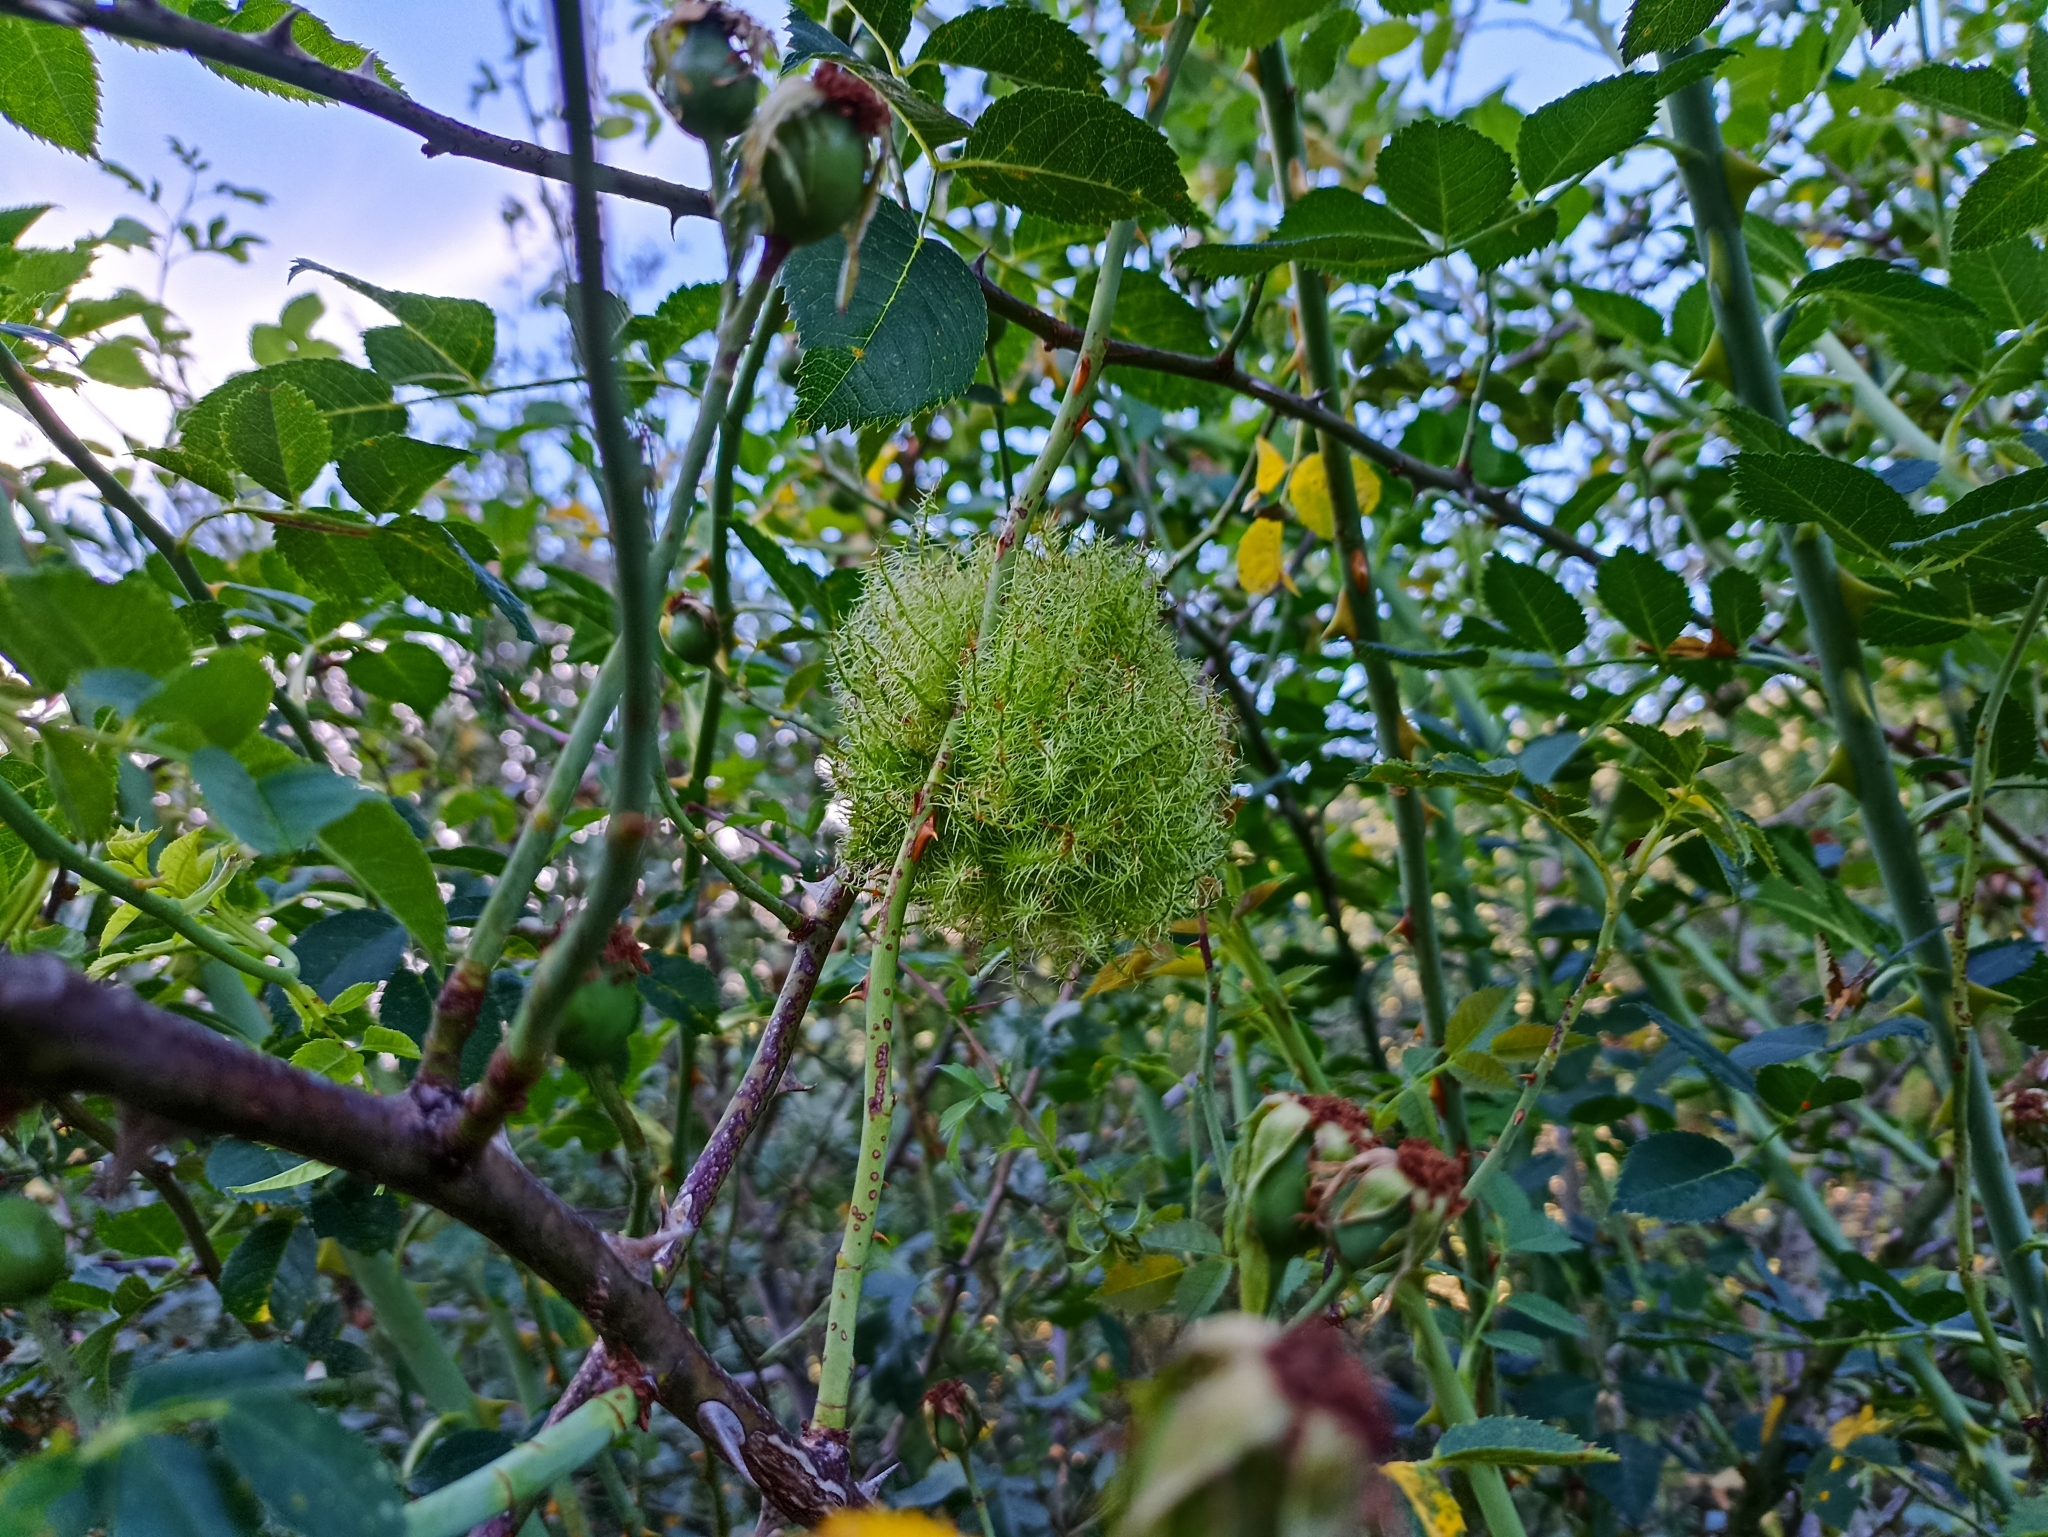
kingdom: Animalia
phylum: Arthropoda
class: Insecta
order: Hymenoptera
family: Cynipidae
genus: Diplolepis
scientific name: Diplolepis rosae
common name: Bedeguar gall
